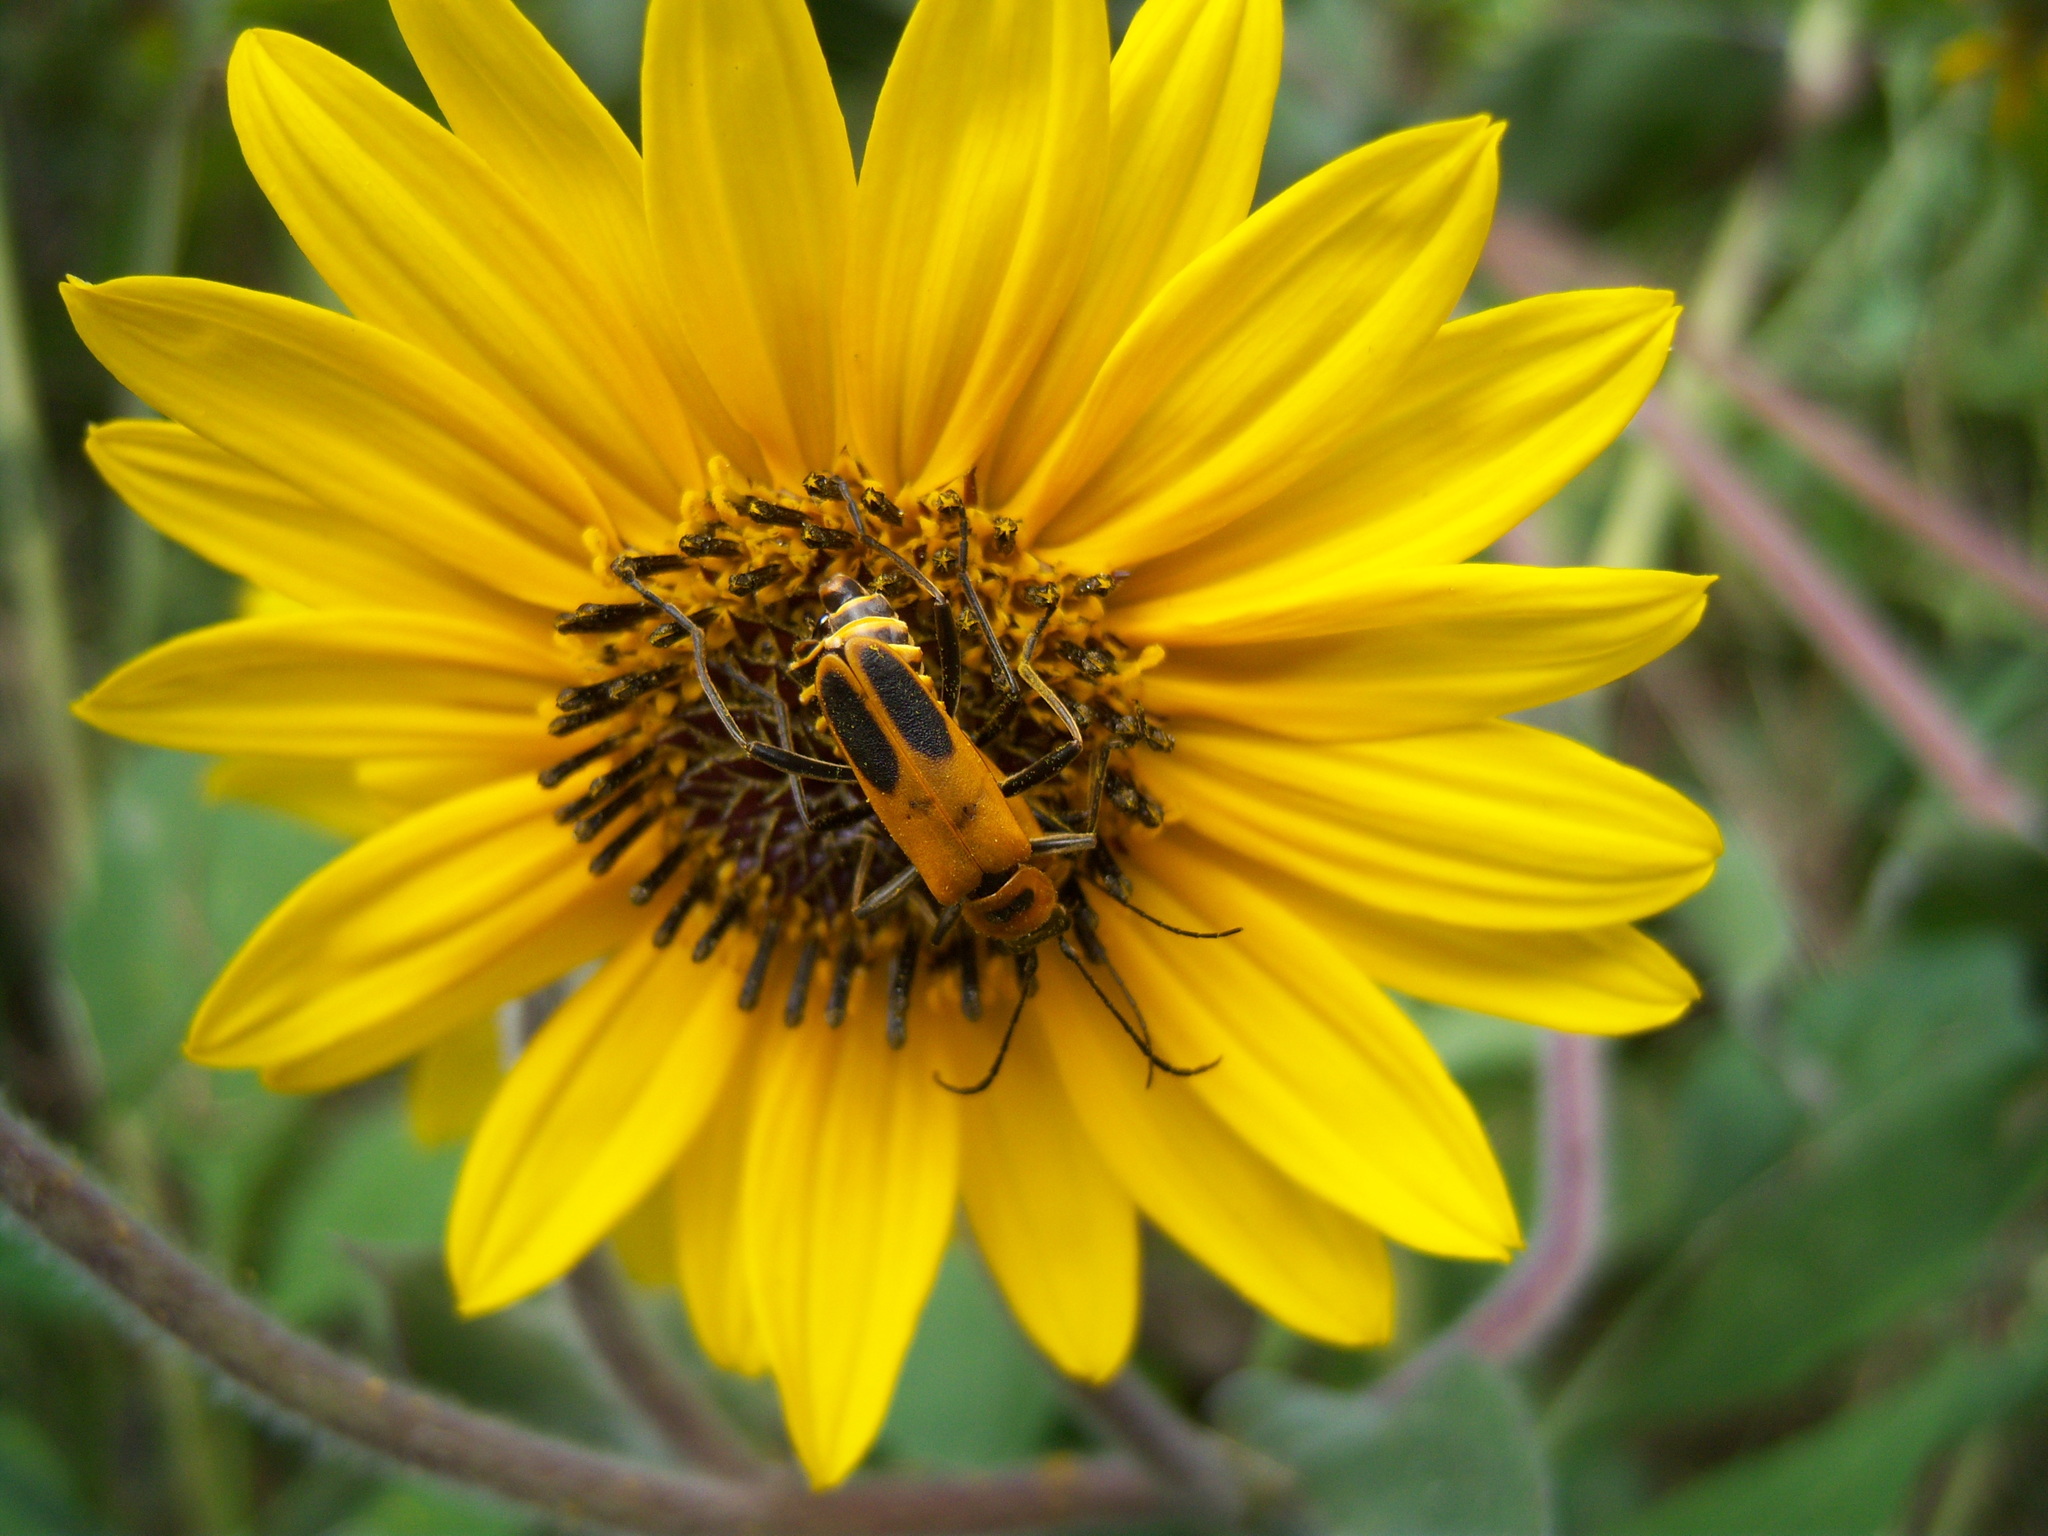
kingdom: Animalia
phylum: Arthropoda
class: Insecta
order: Coleoptera
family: Cantharidae
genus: Chauliognathus
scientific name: Chauliognathus pensylvanicus
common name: Goldenrod soldier beetle
